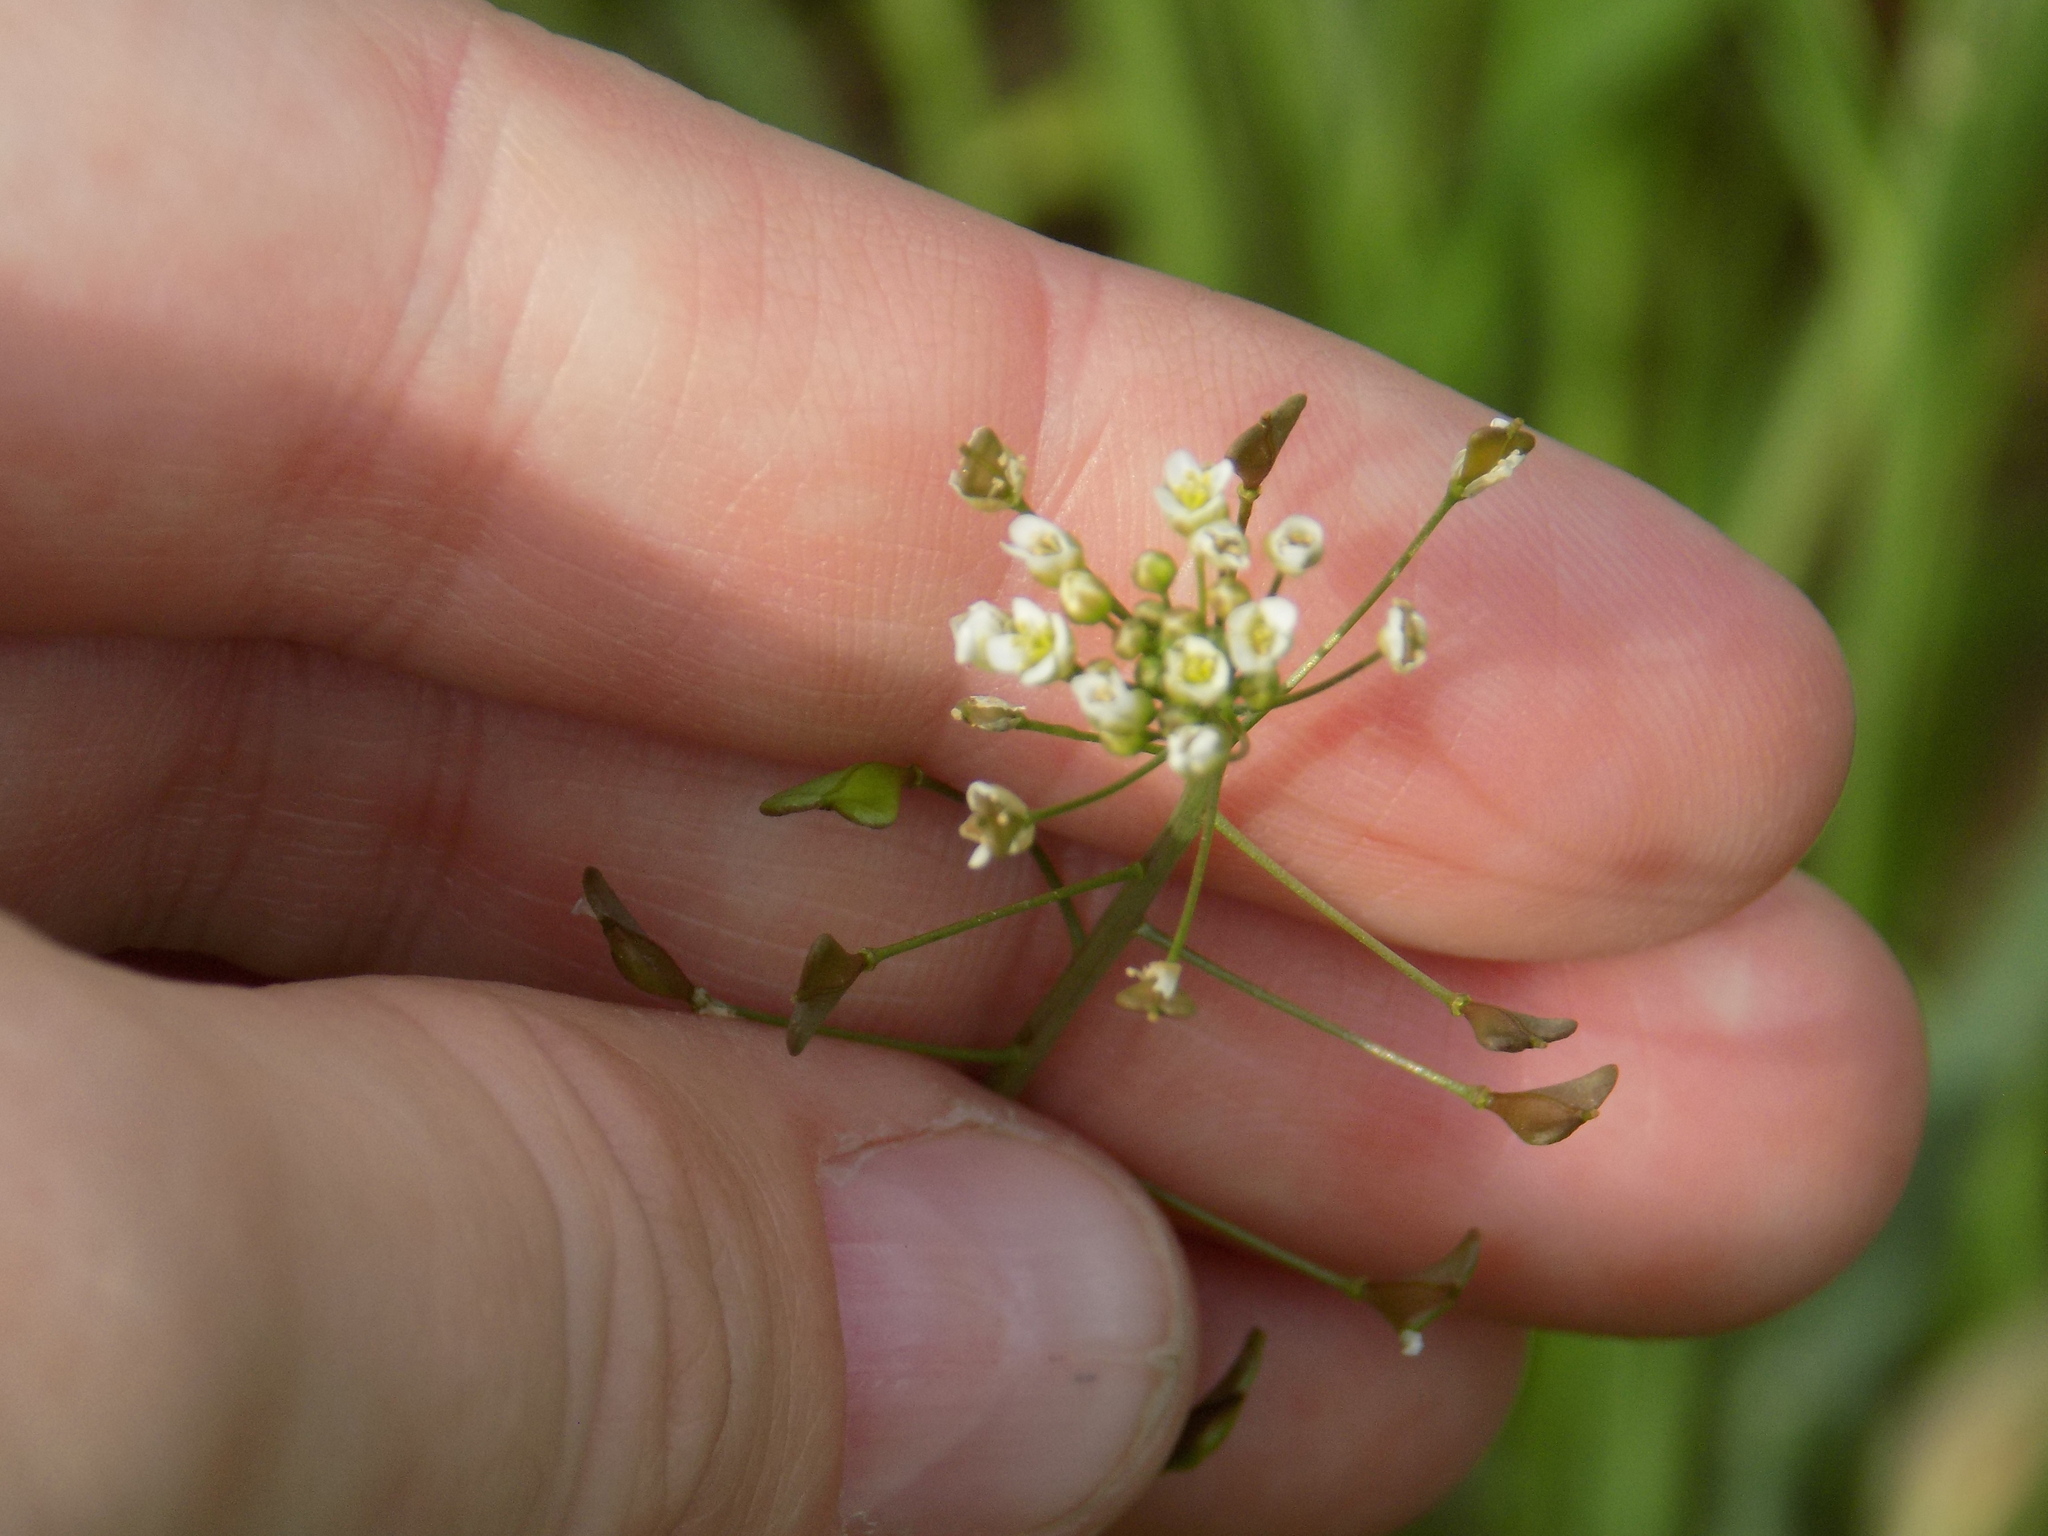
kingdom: Plantae
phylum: Tracheophyta
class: Magnoliopsida
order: Brassicales
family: Brassicaceae
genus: Capsella
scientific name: Capsella bursa-pastoris
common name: Shepherd's purse
